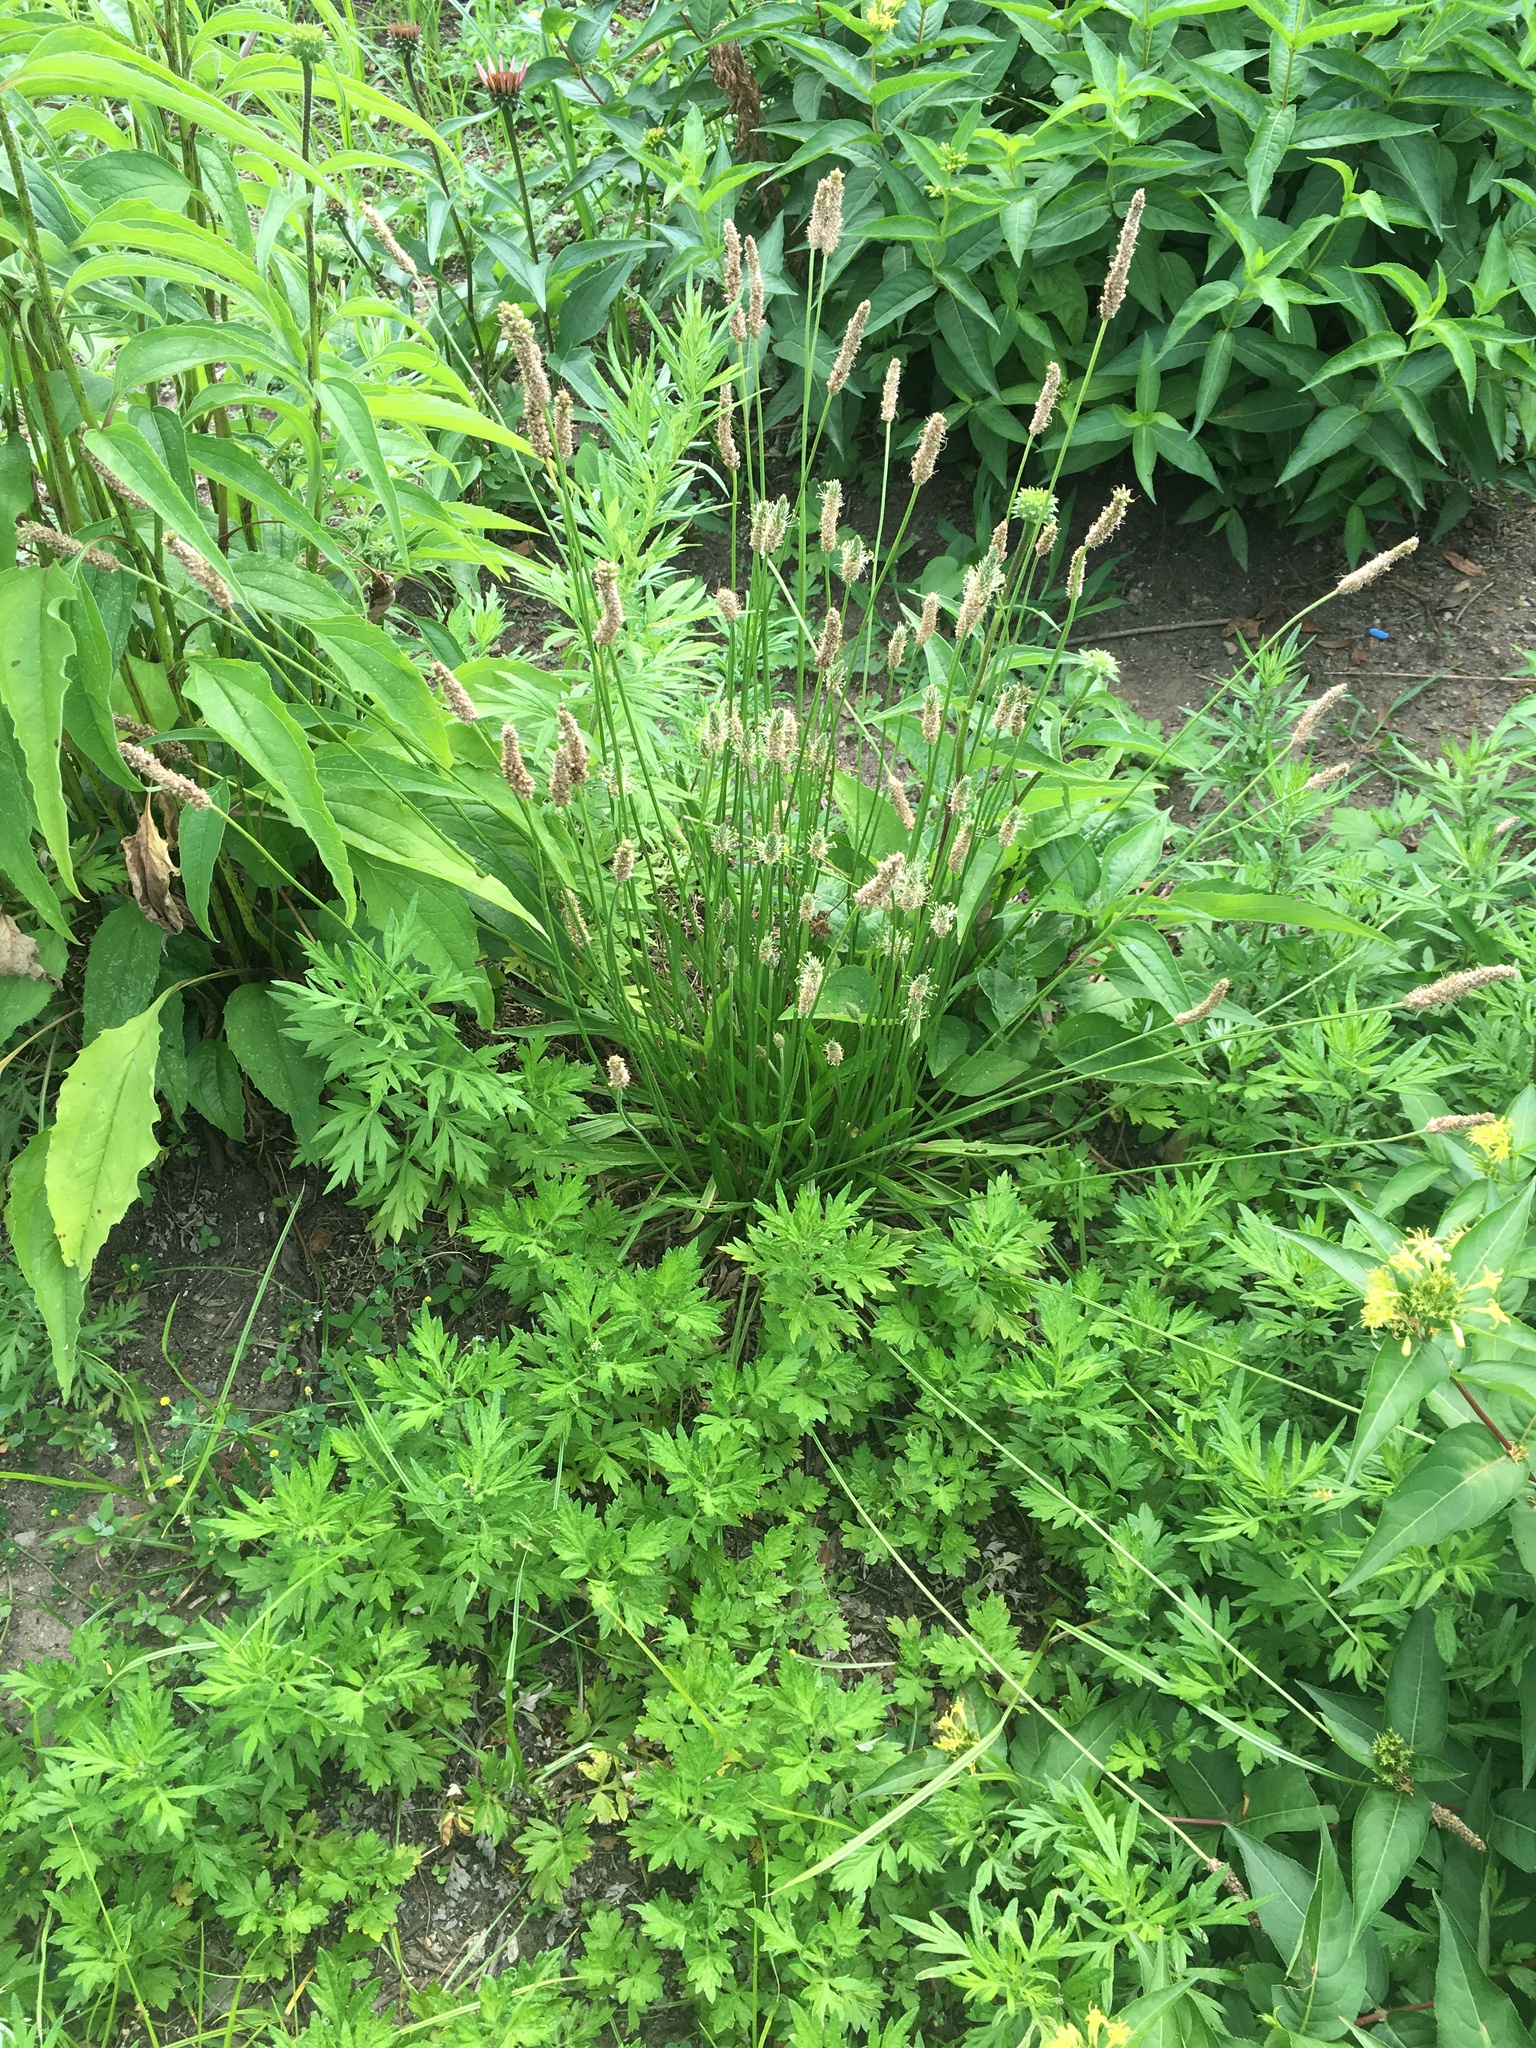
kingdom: Plantae
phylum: Tracheophyta
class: Magnoliopsida
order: Lamiales
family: Plantaginaceae
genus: Plantago
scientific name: Plantago lanceolata
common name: Ribwort plantain
